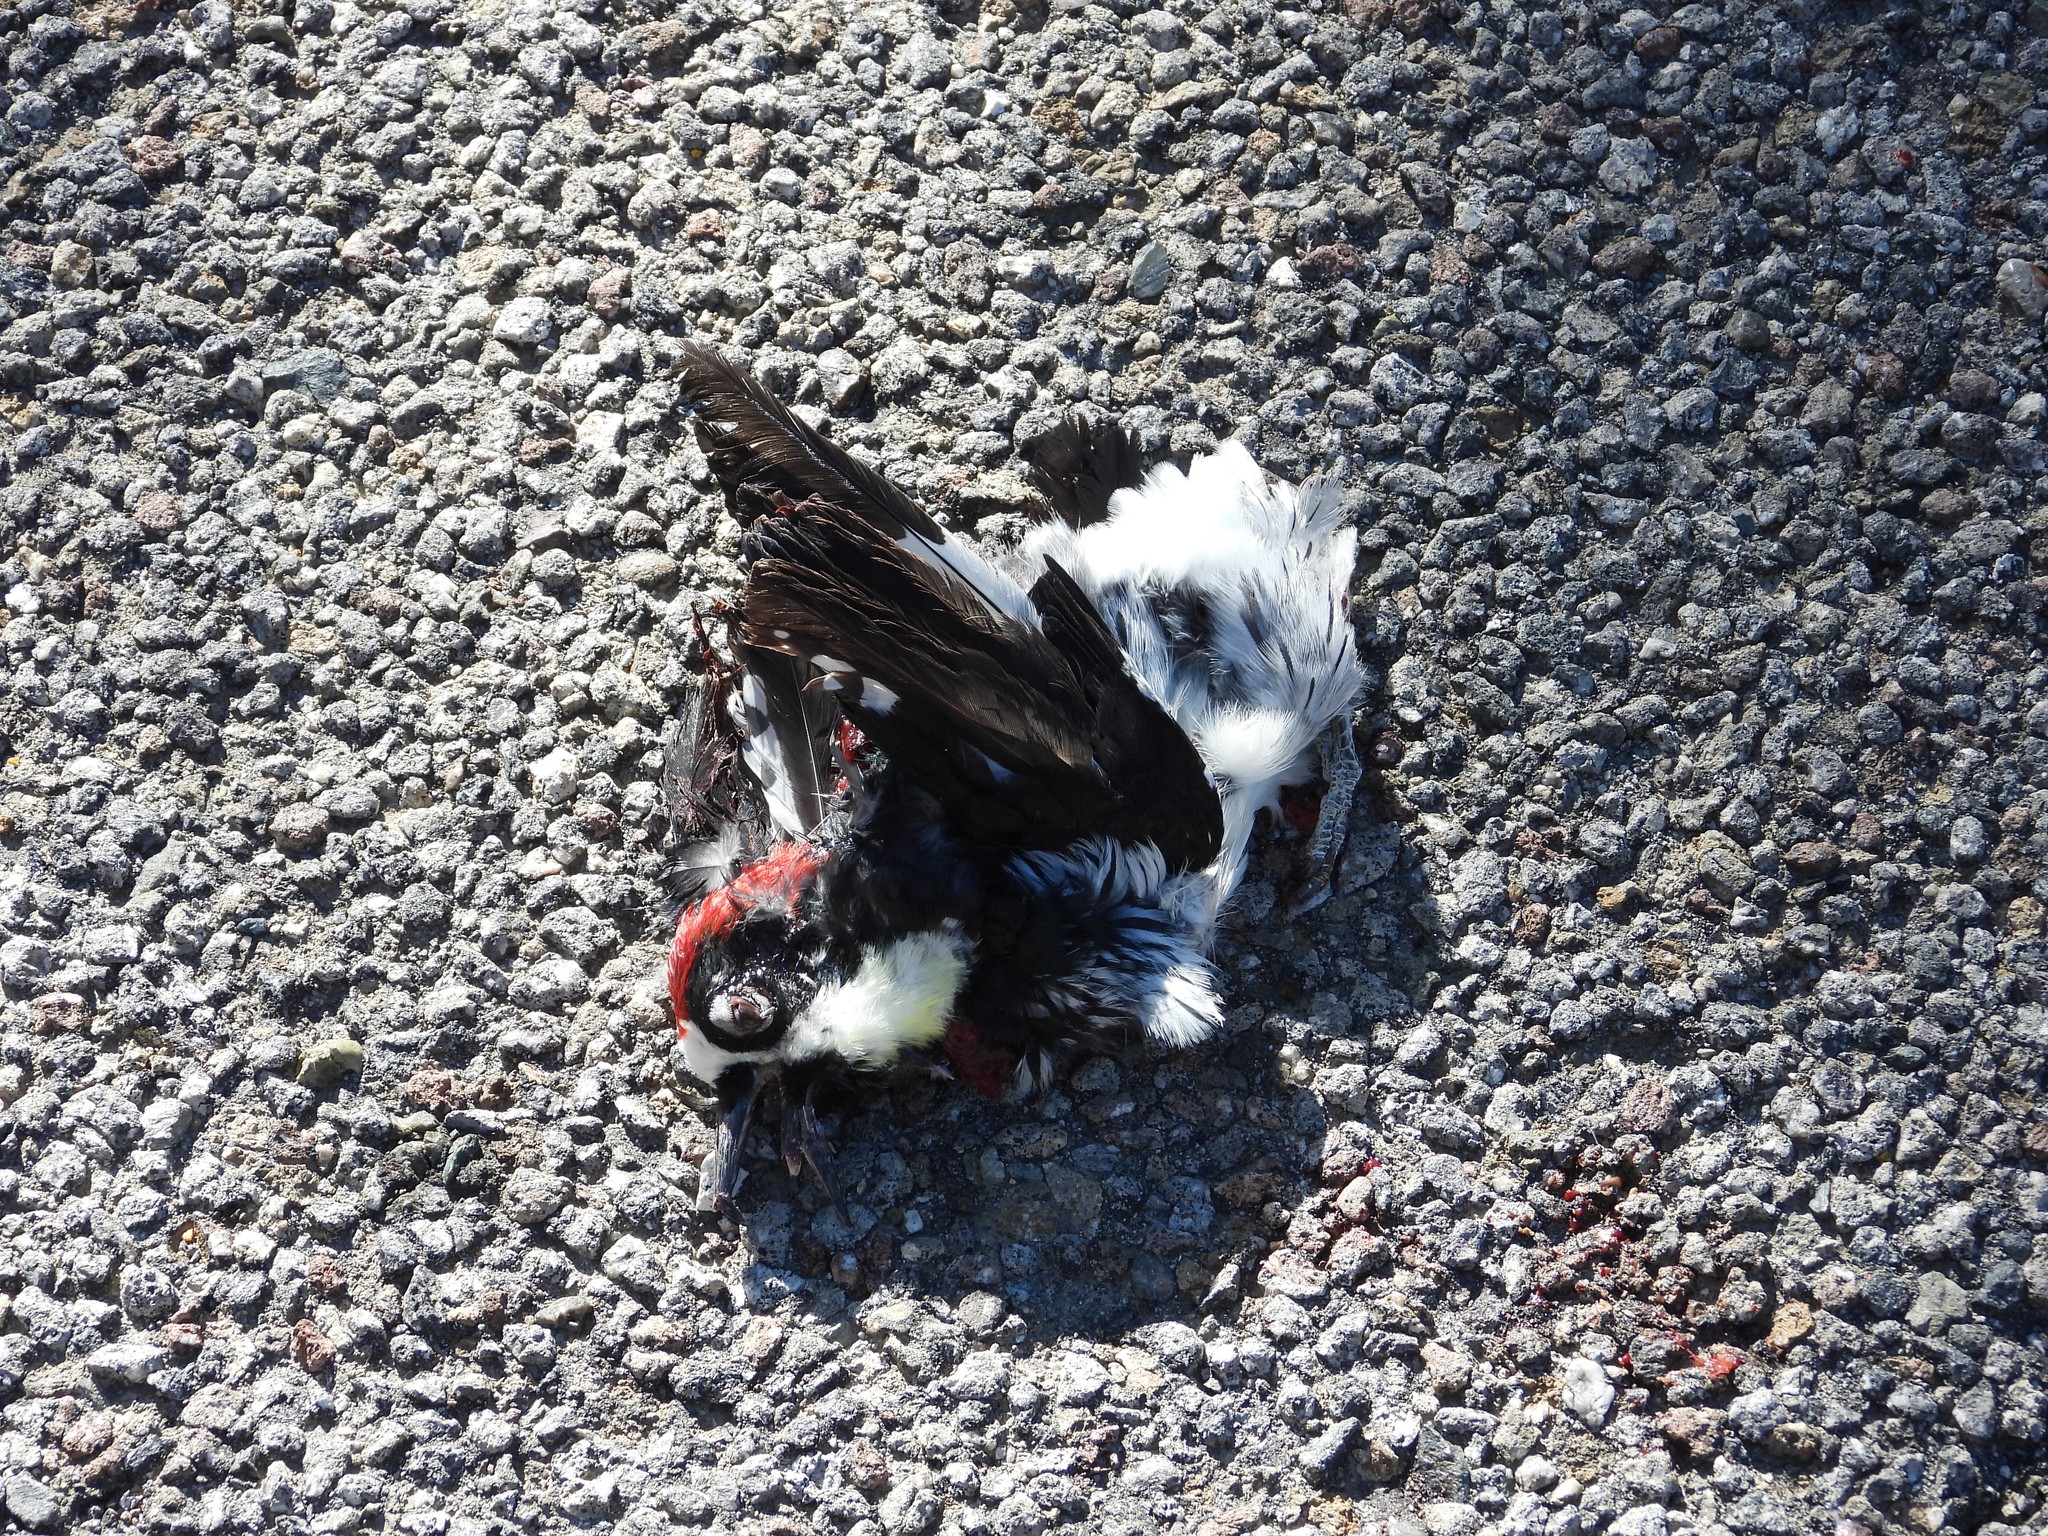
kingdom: Animalia
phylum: Chordata
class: Aves
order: Piciformes
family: Picidae
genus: Melanerpes
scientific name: Melanerpes formicivorus
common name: Acorn woodpecker
